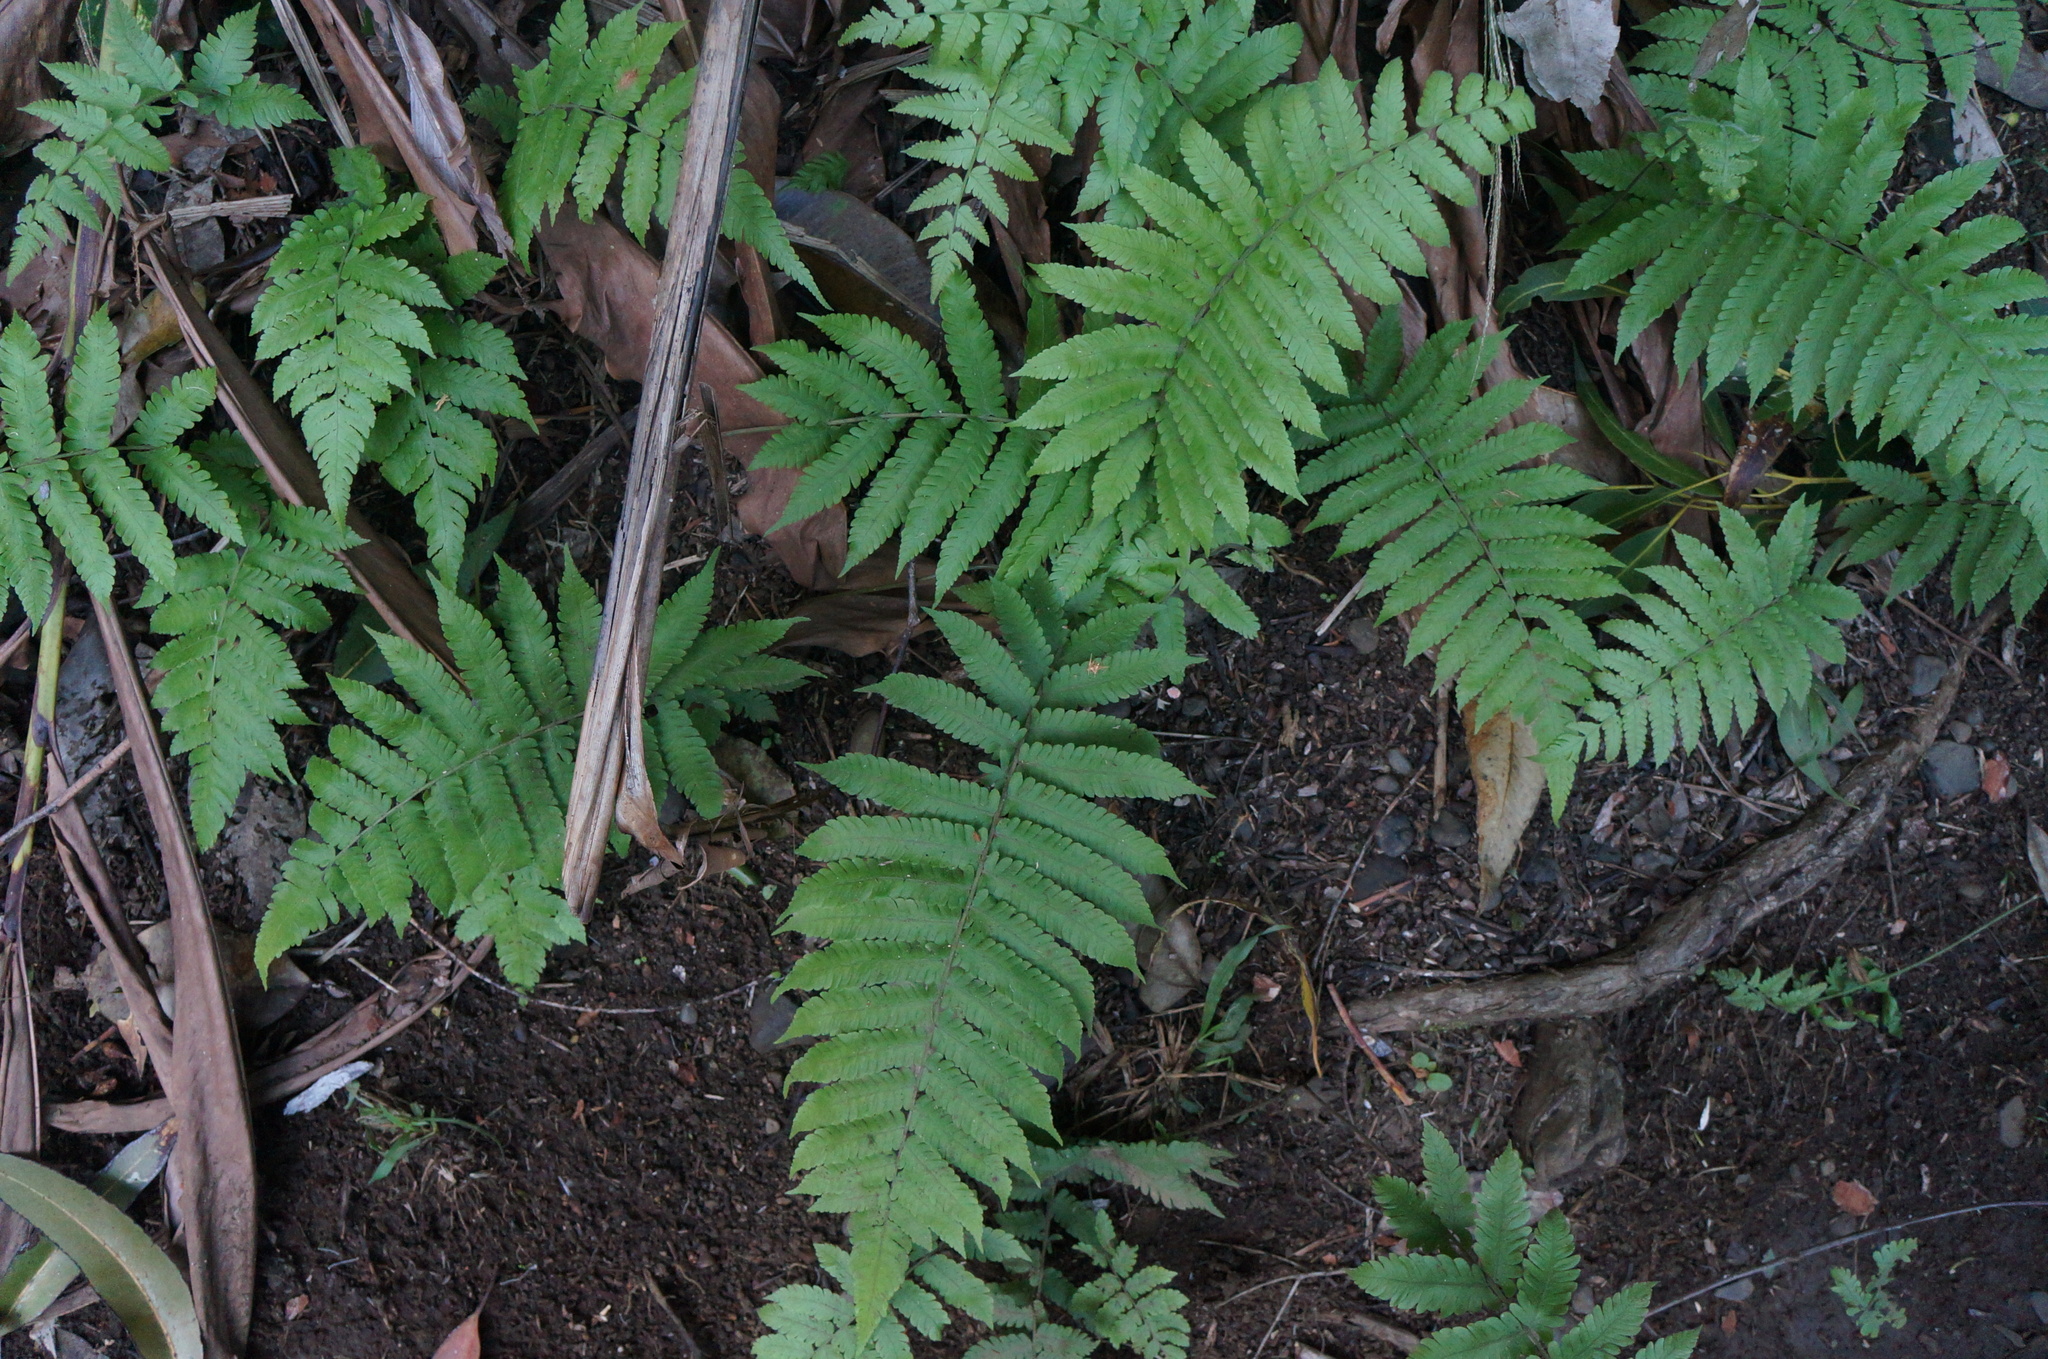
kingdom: Plantae
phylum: Tracheophyta
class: Polypodiopsida
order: Polypodiales
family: Thelypteridaceae
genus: Christella
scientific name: Christella parasitica
